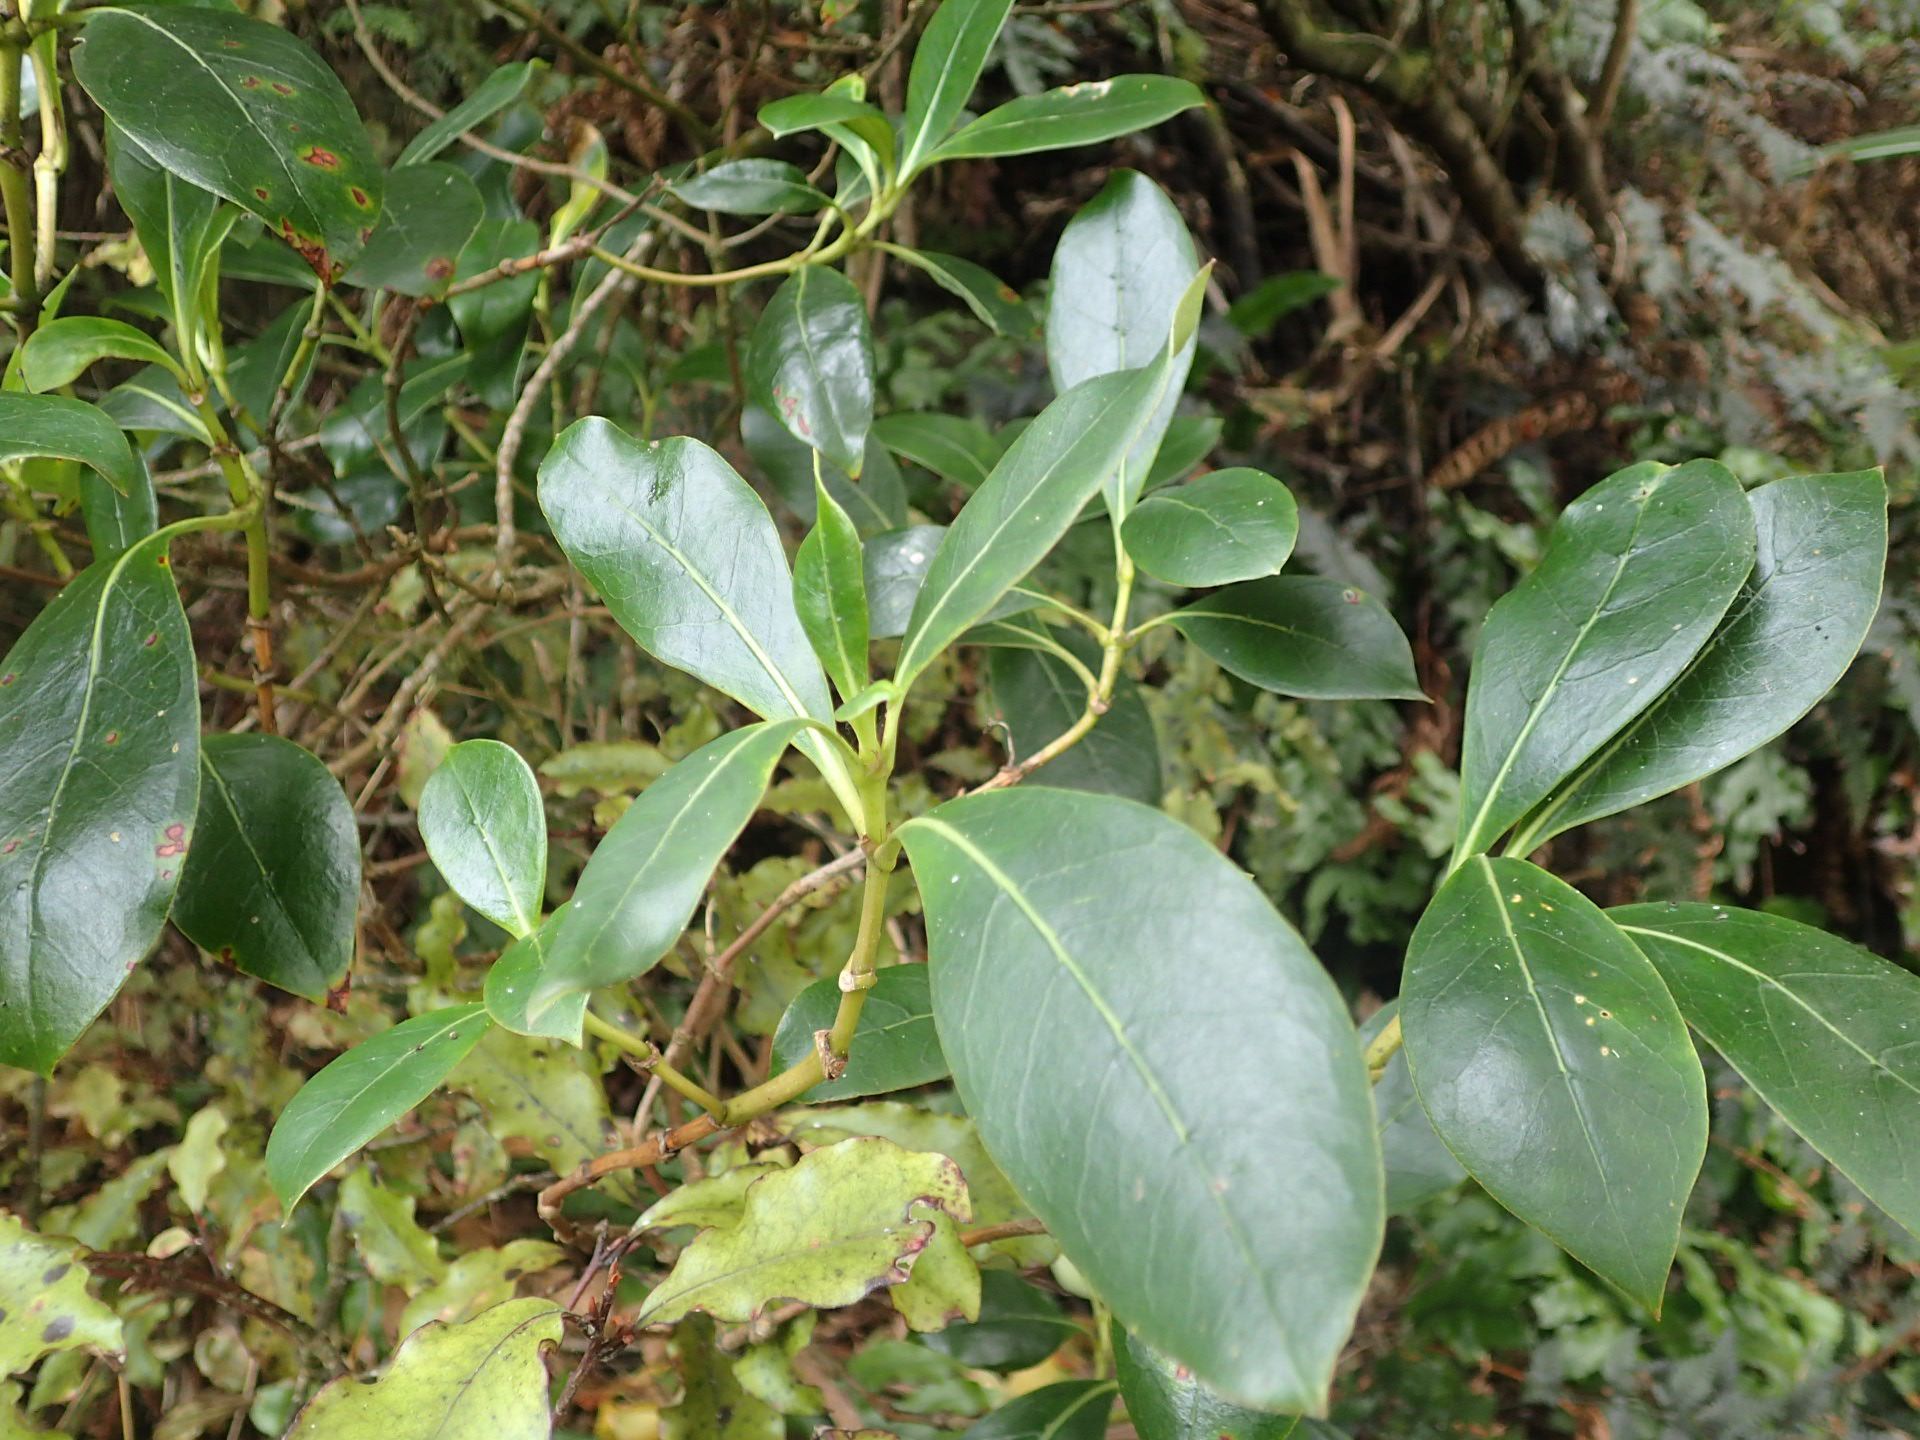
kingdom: Plantae
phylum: Tracheophyta
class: Magnoliopsida
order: Gentianales
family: Rubiaceae
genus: Coprosma
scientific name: Coprosma lucida
